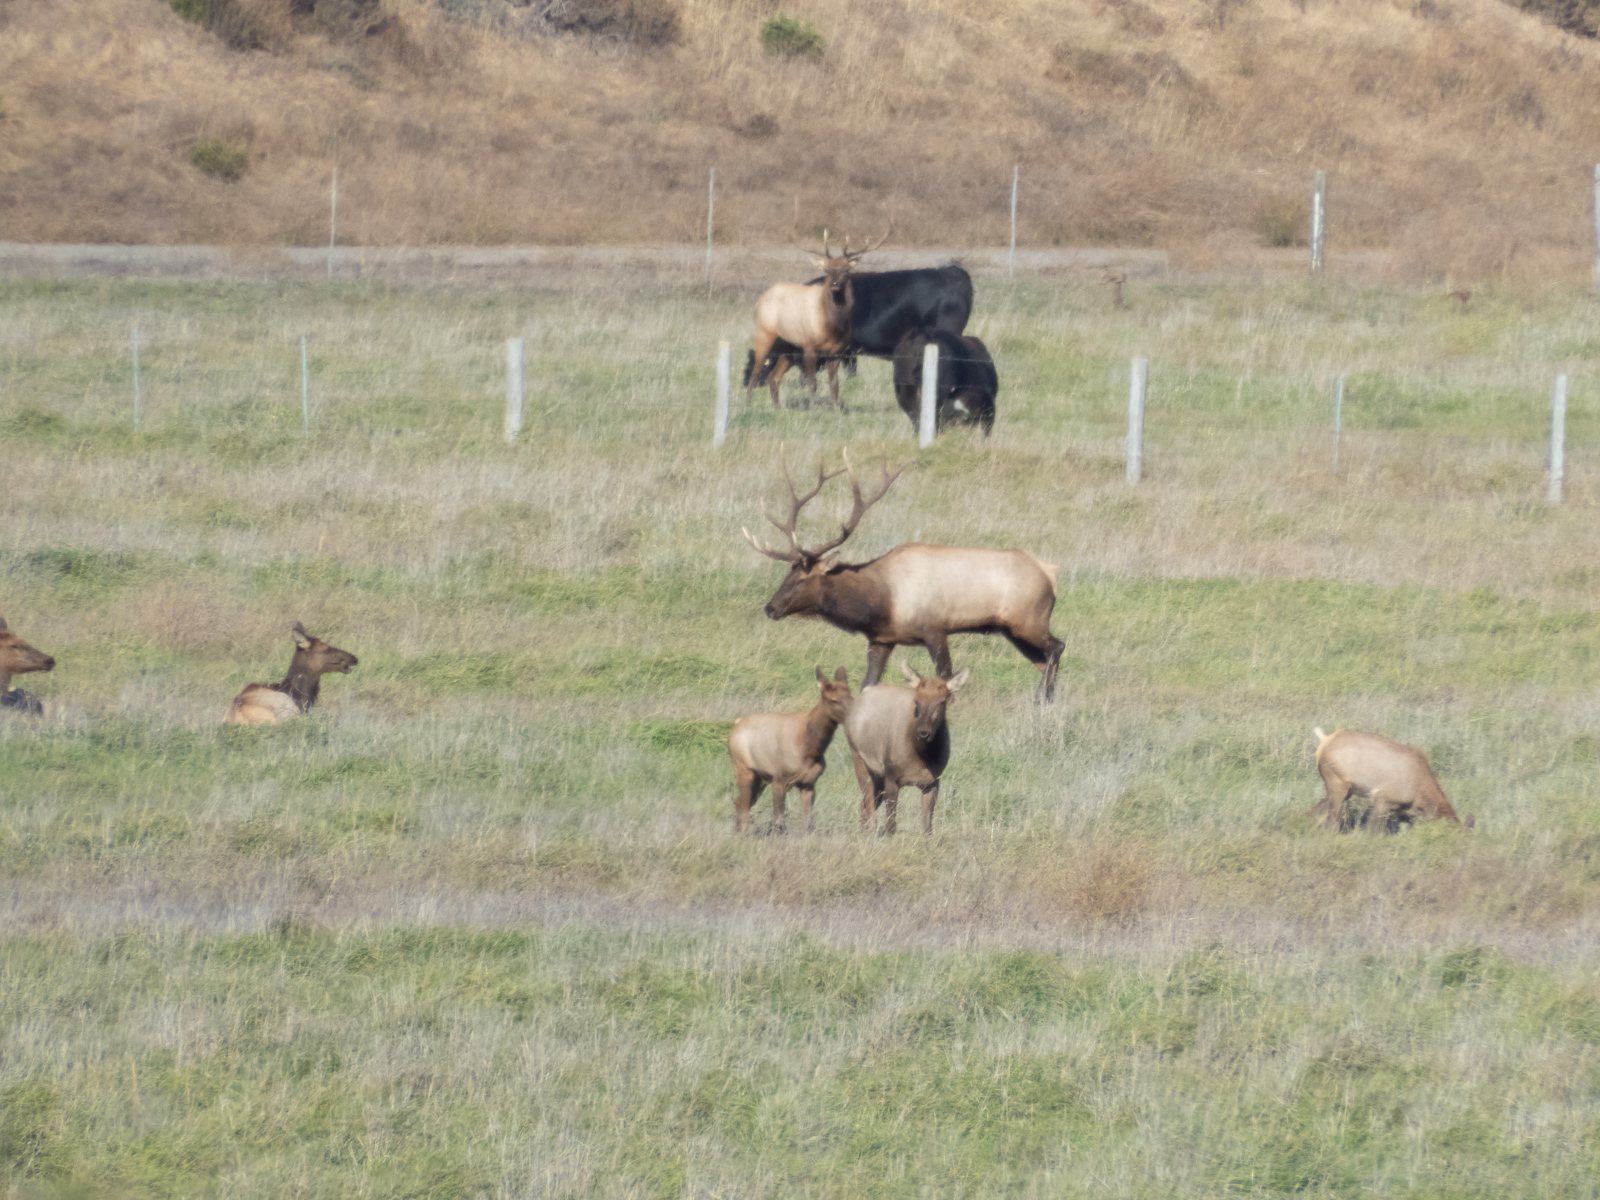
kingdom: Animalia
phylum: Chordata
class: Mammalia
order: Artiodactyla
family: Cervidae
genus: Cervus
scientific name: Cervus elaphus
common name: Red deer
